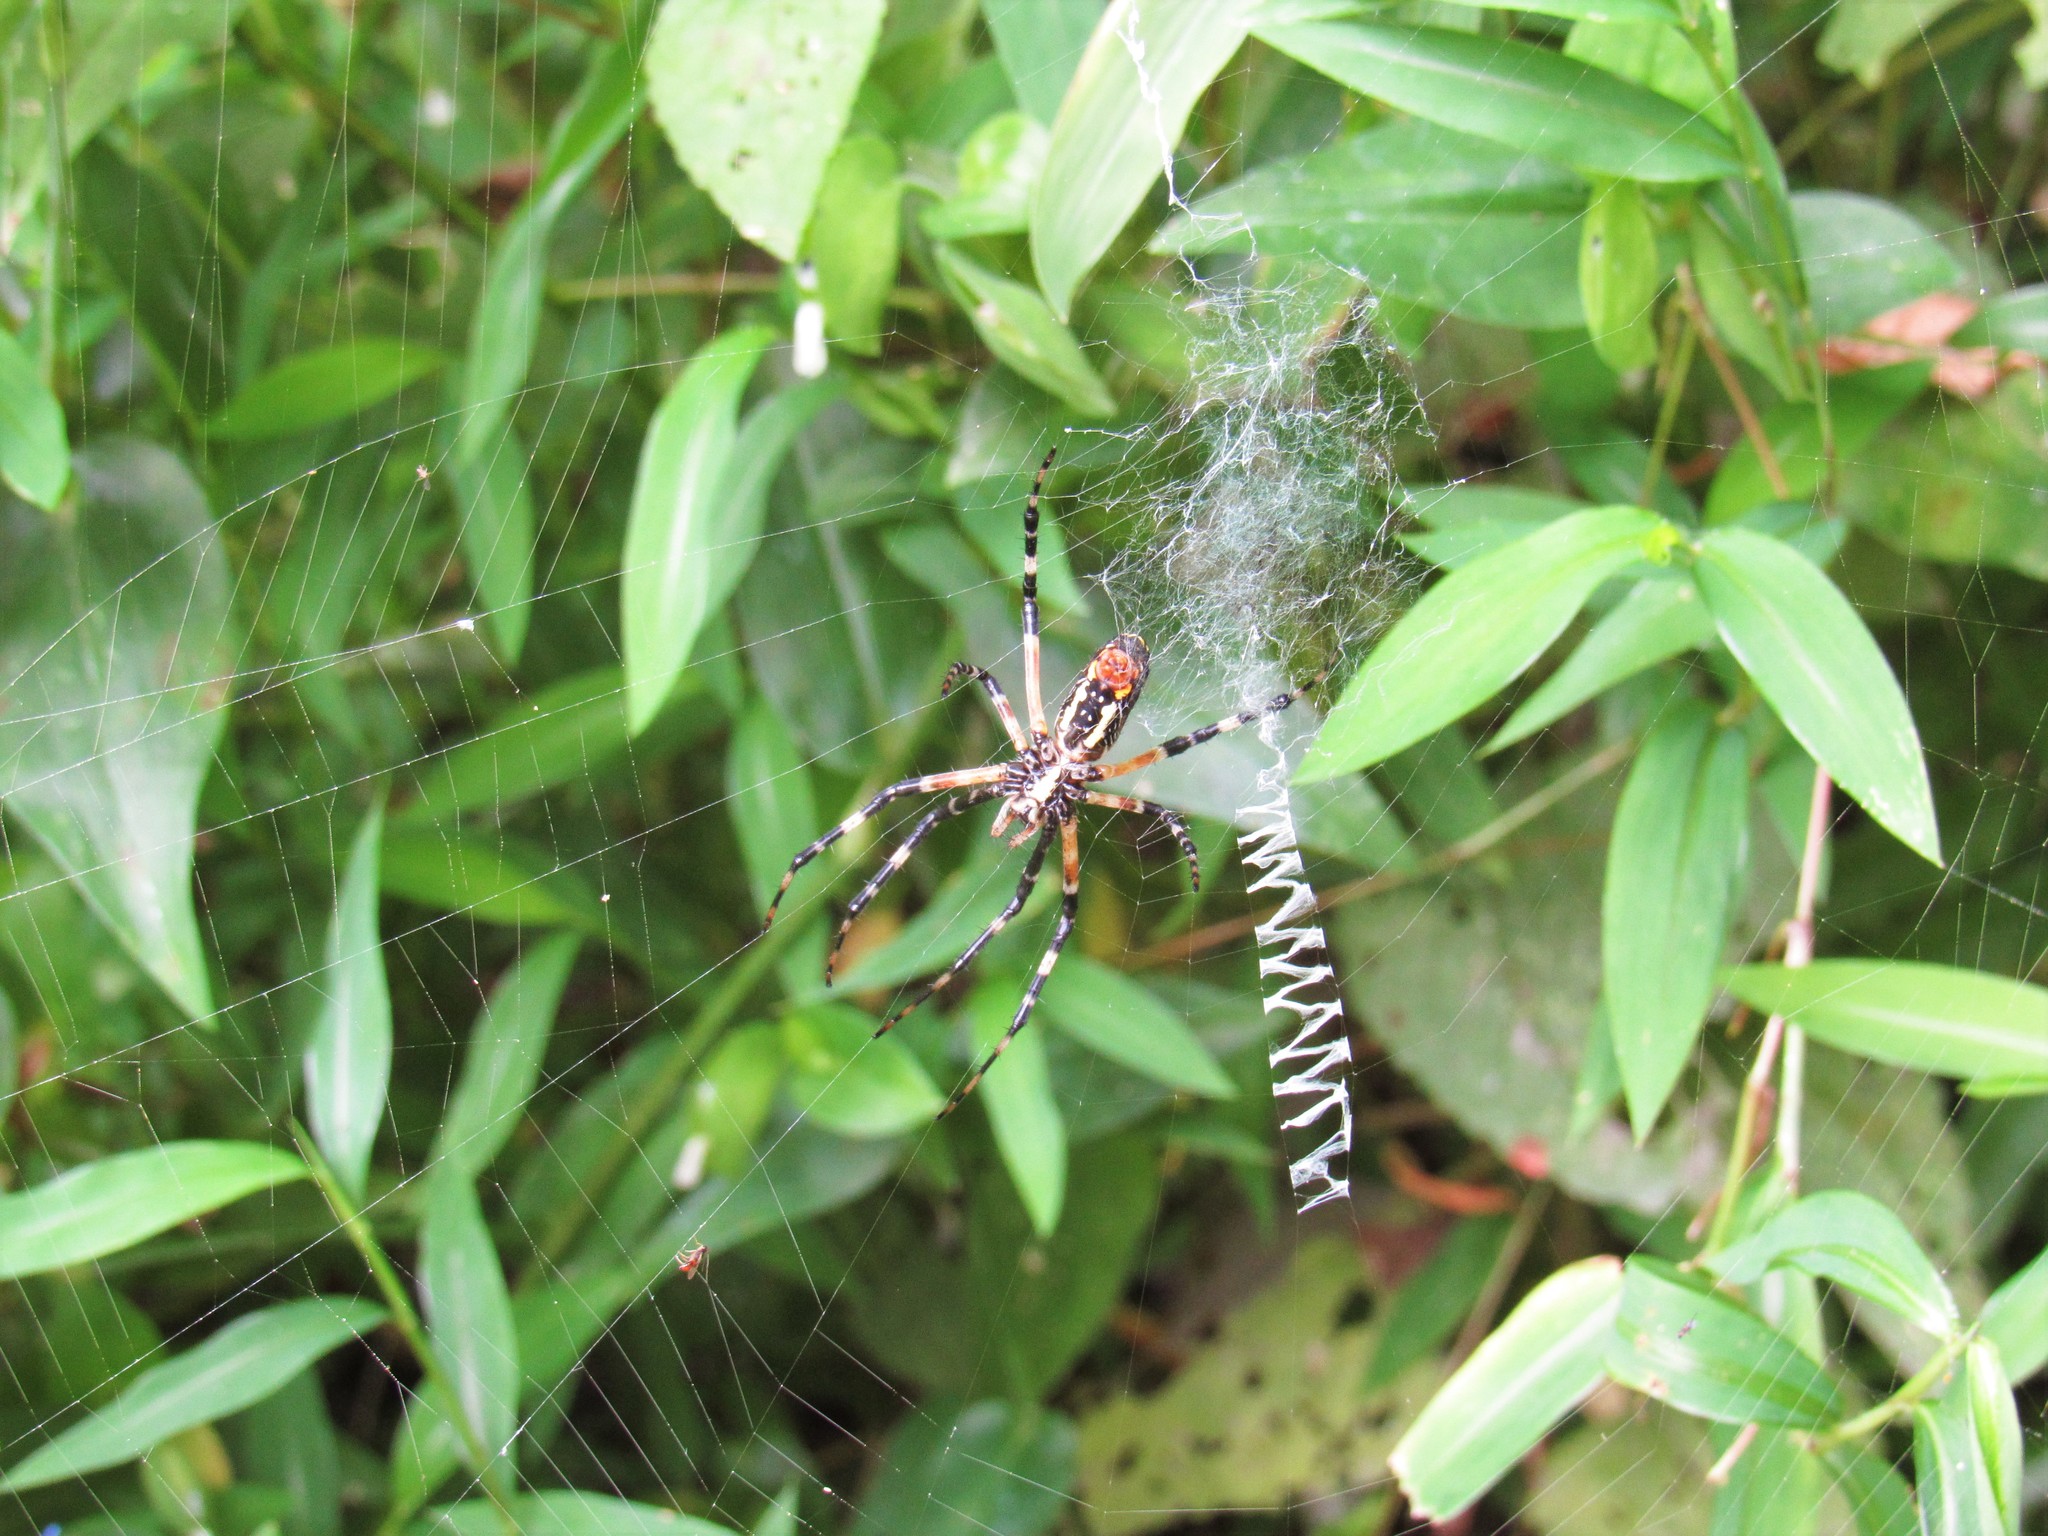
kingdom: Animalia
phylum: Arthropoda
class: Arachnida
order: Araneae
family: Araneidae
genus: Argiope
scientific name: Argiope aurantia
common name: Orb weavers
